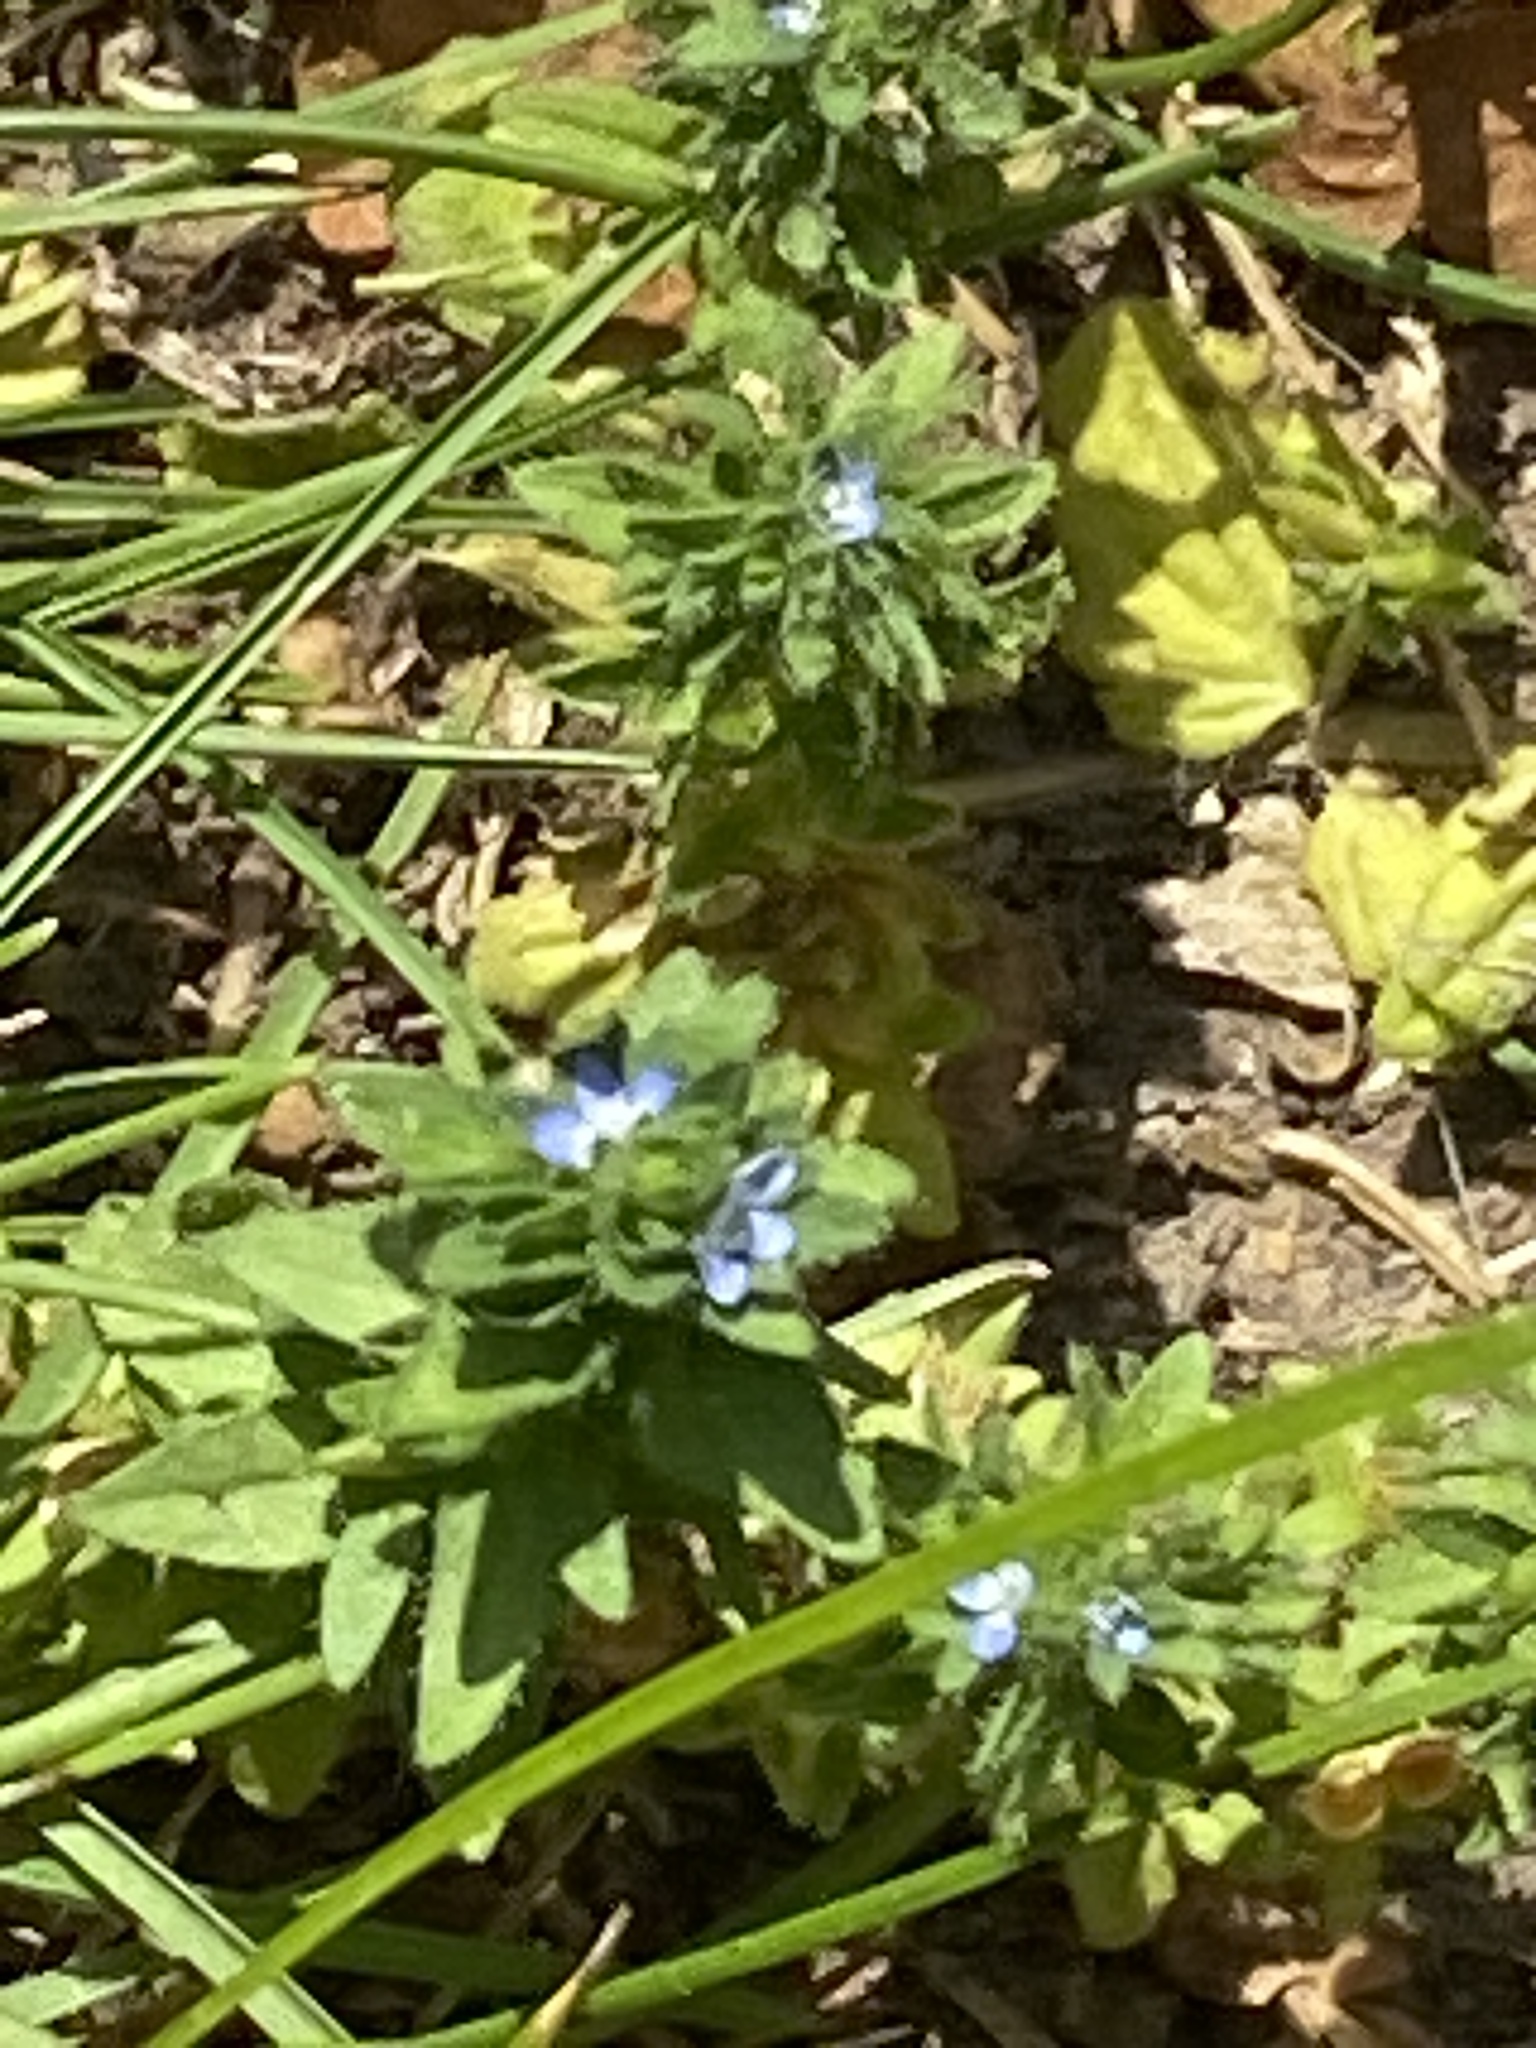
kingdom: Plantae
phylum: Tracheophyta
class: Magnoliopsida
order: Lamiales
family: Plantaginaceae
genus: Veronica
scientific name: Veronica arvensis
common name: Corn speedwell
